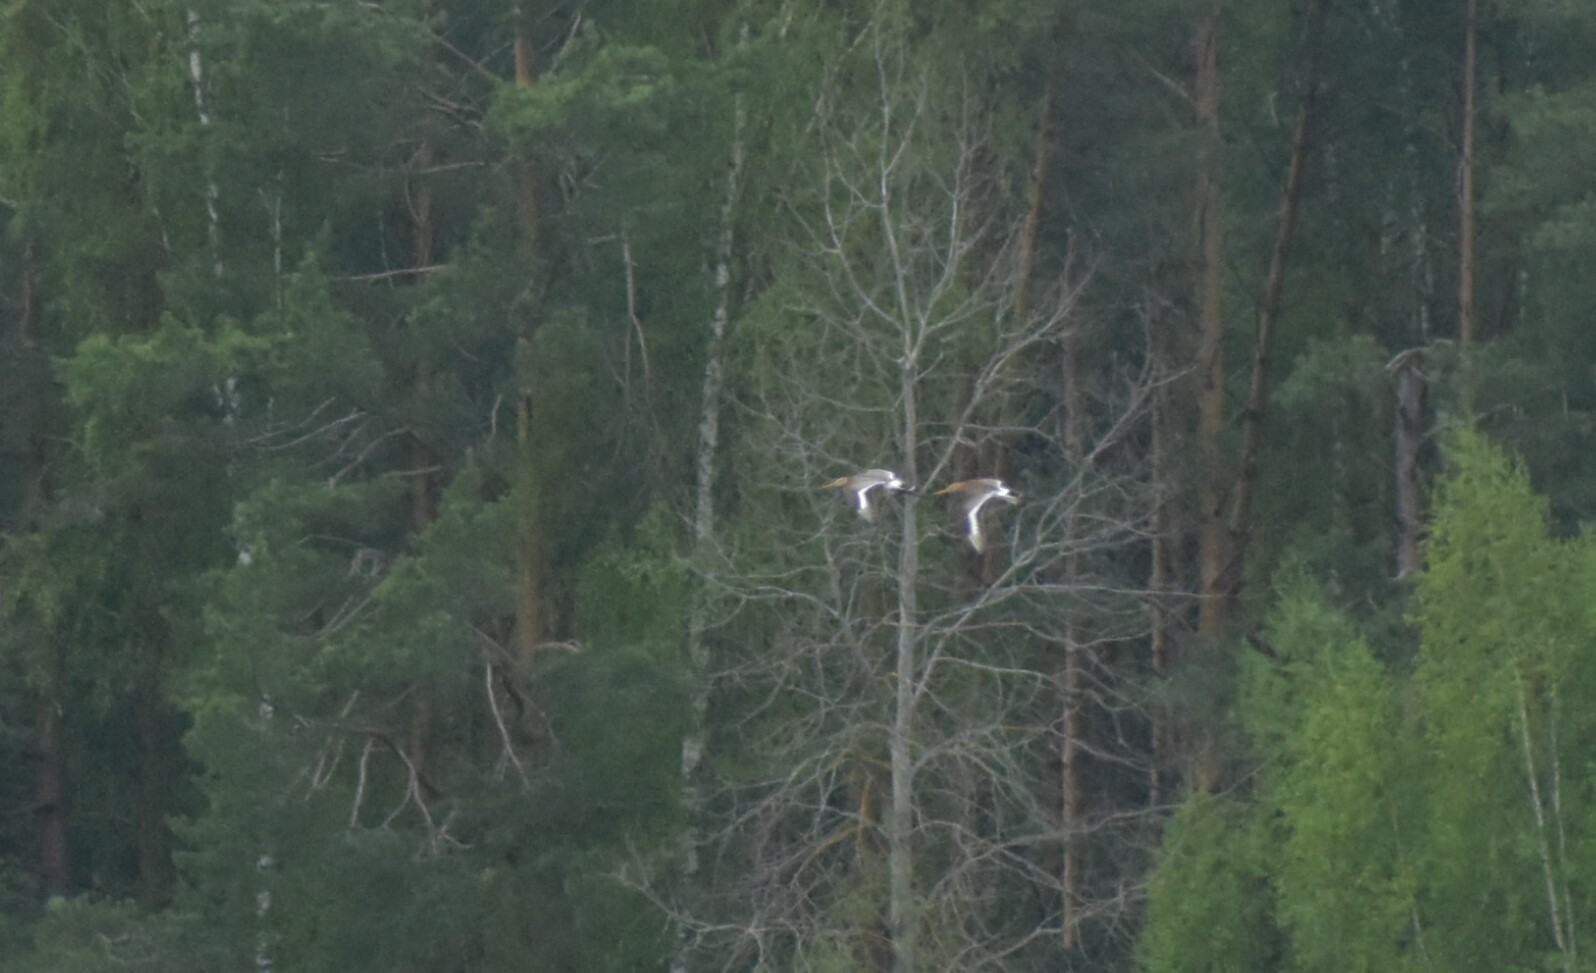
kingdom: Animalia
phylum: Chordata
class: Aves
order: Charadriiformes
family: Scolopacidae
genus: Limosa
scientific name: Limosa limosa
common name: Black-tailed godwit
